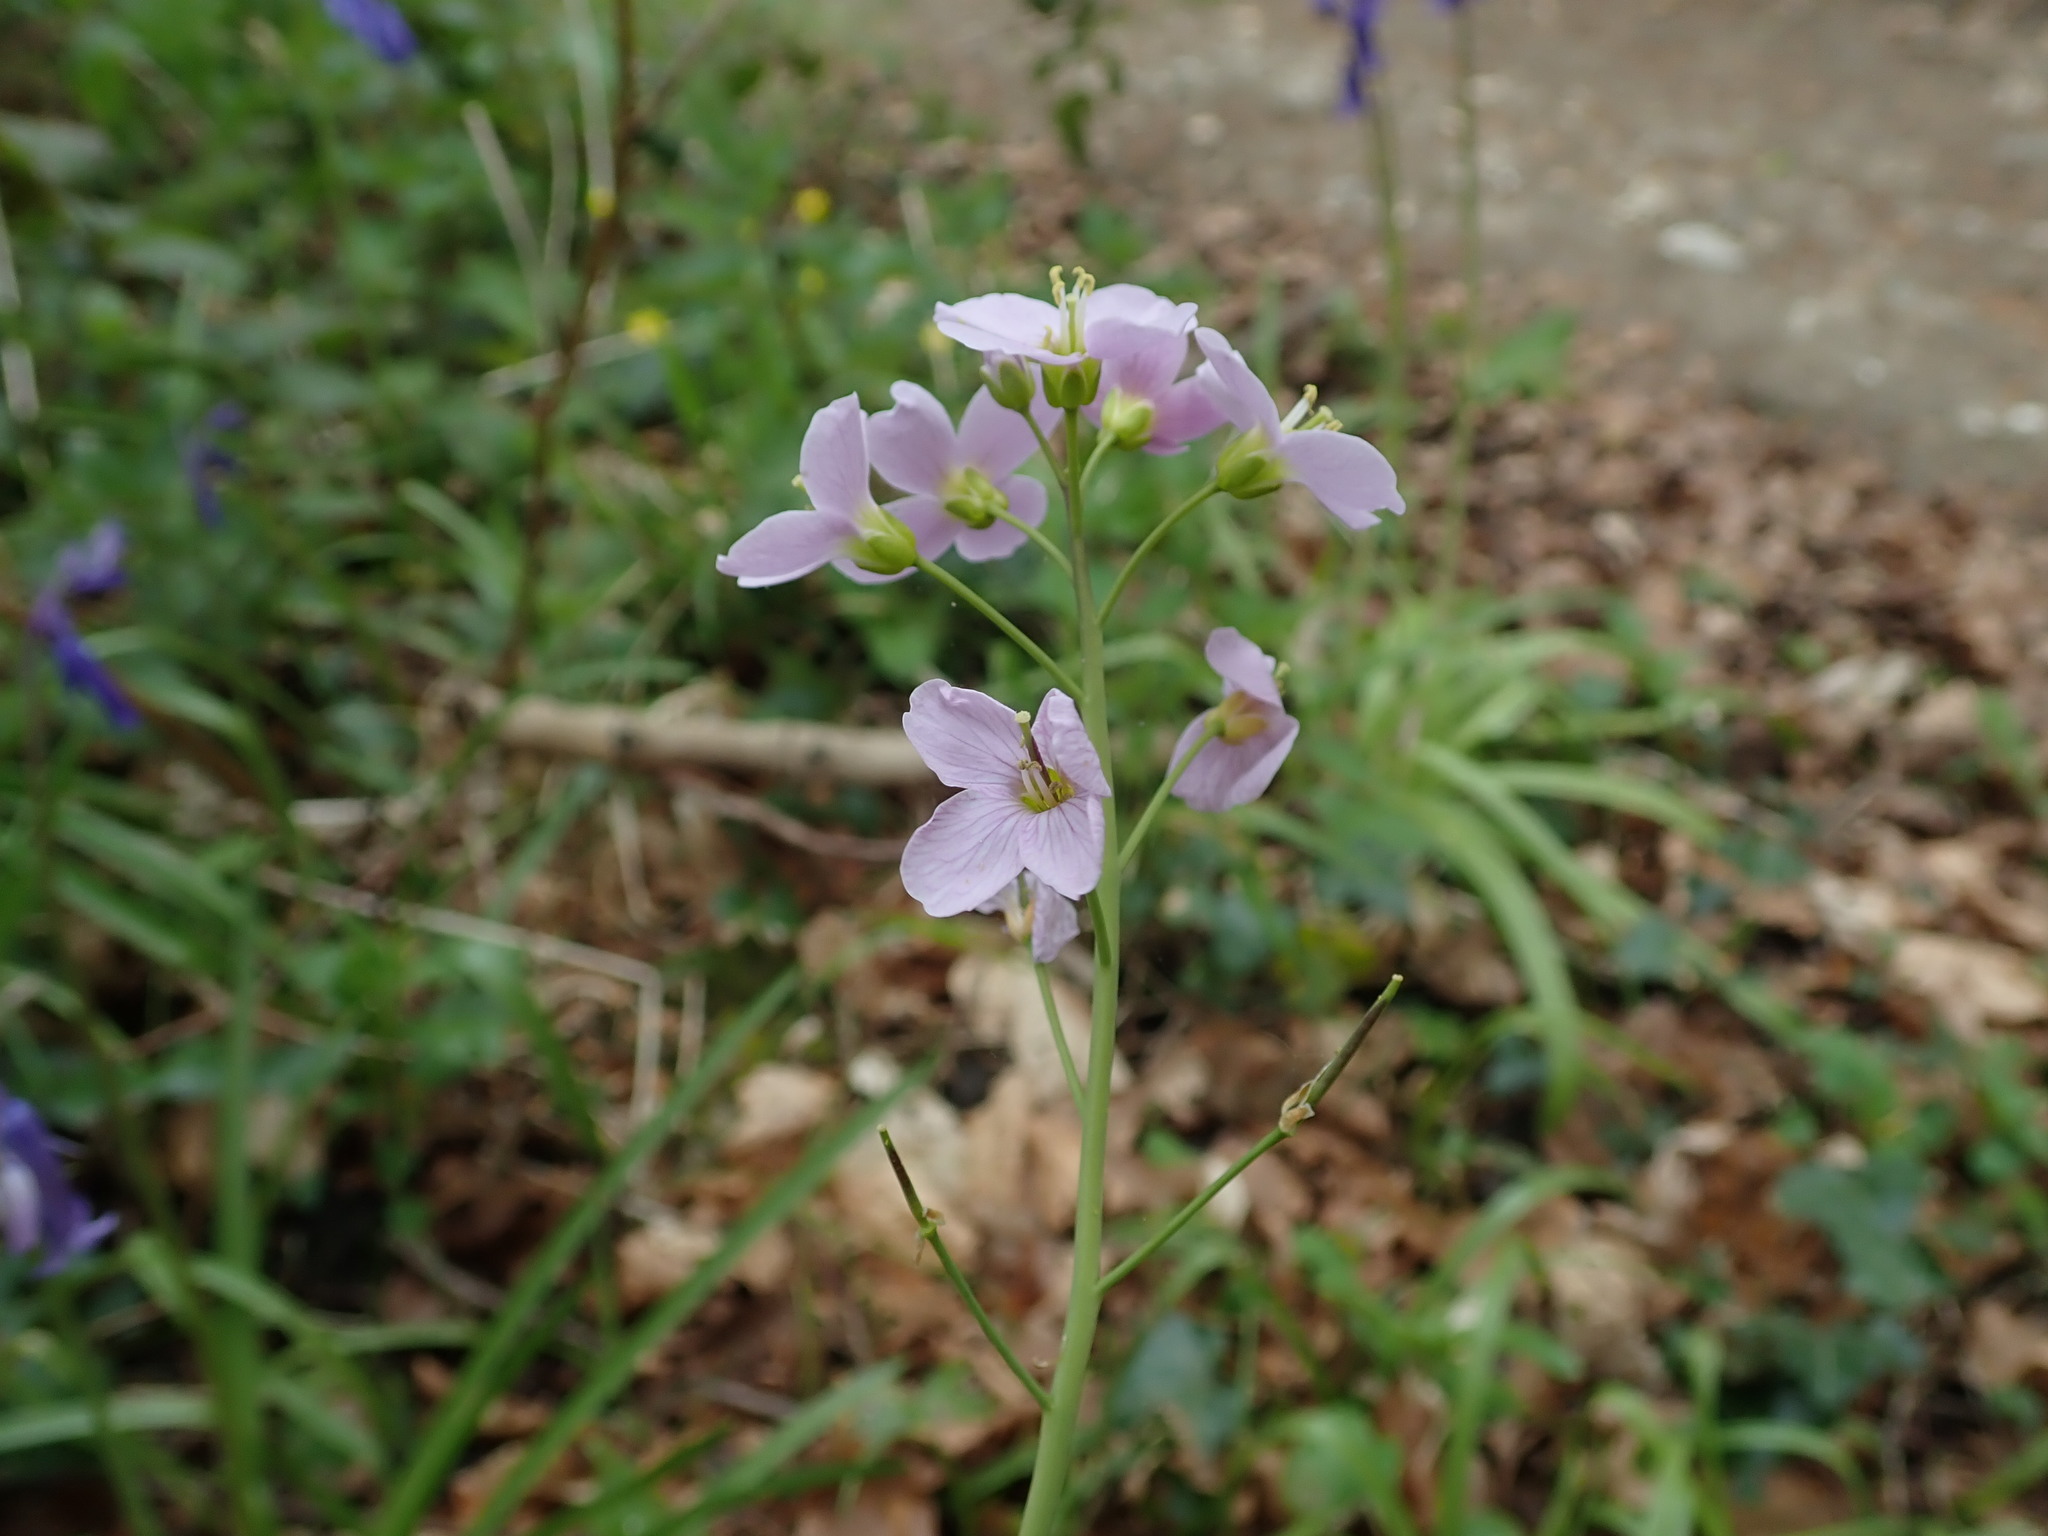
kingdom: Plantae
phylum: Tracheophyta
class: Magnoliopsida
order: Brassicales
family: Brassicaceae
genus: Cardamine
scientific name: Cardamine pratensis
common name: Cuckoo flower
